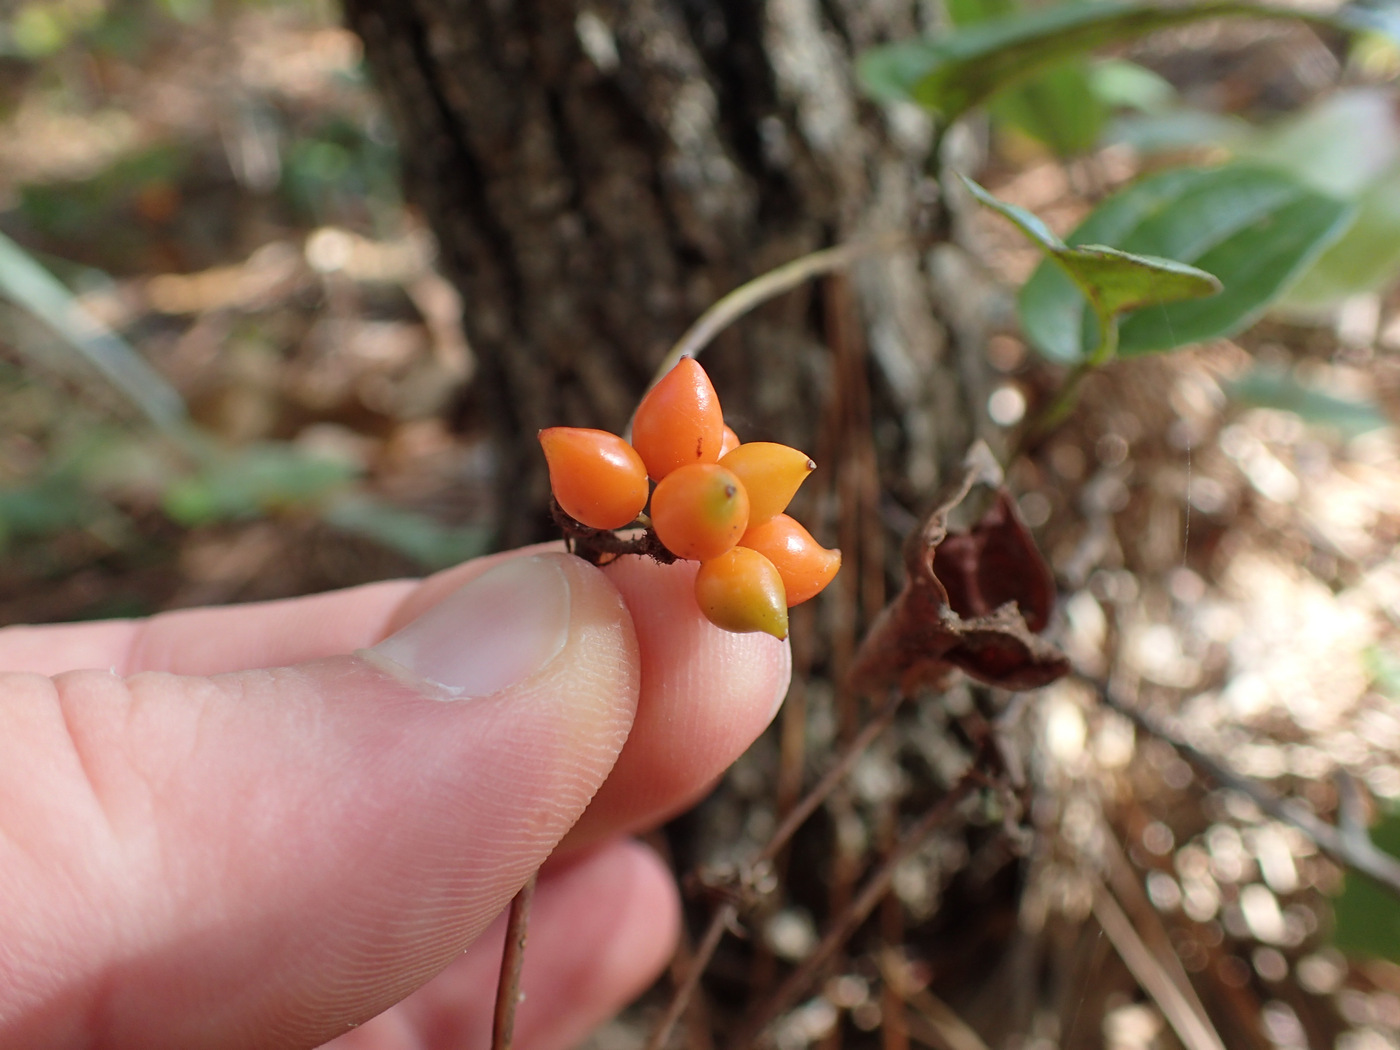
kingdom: Plantae
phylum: Tracheophyta
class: Liliopsida
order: Liliales
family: Smilacaceae
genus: Smilax
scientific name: Smilax pumila
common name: Sarsaparilla-vine
